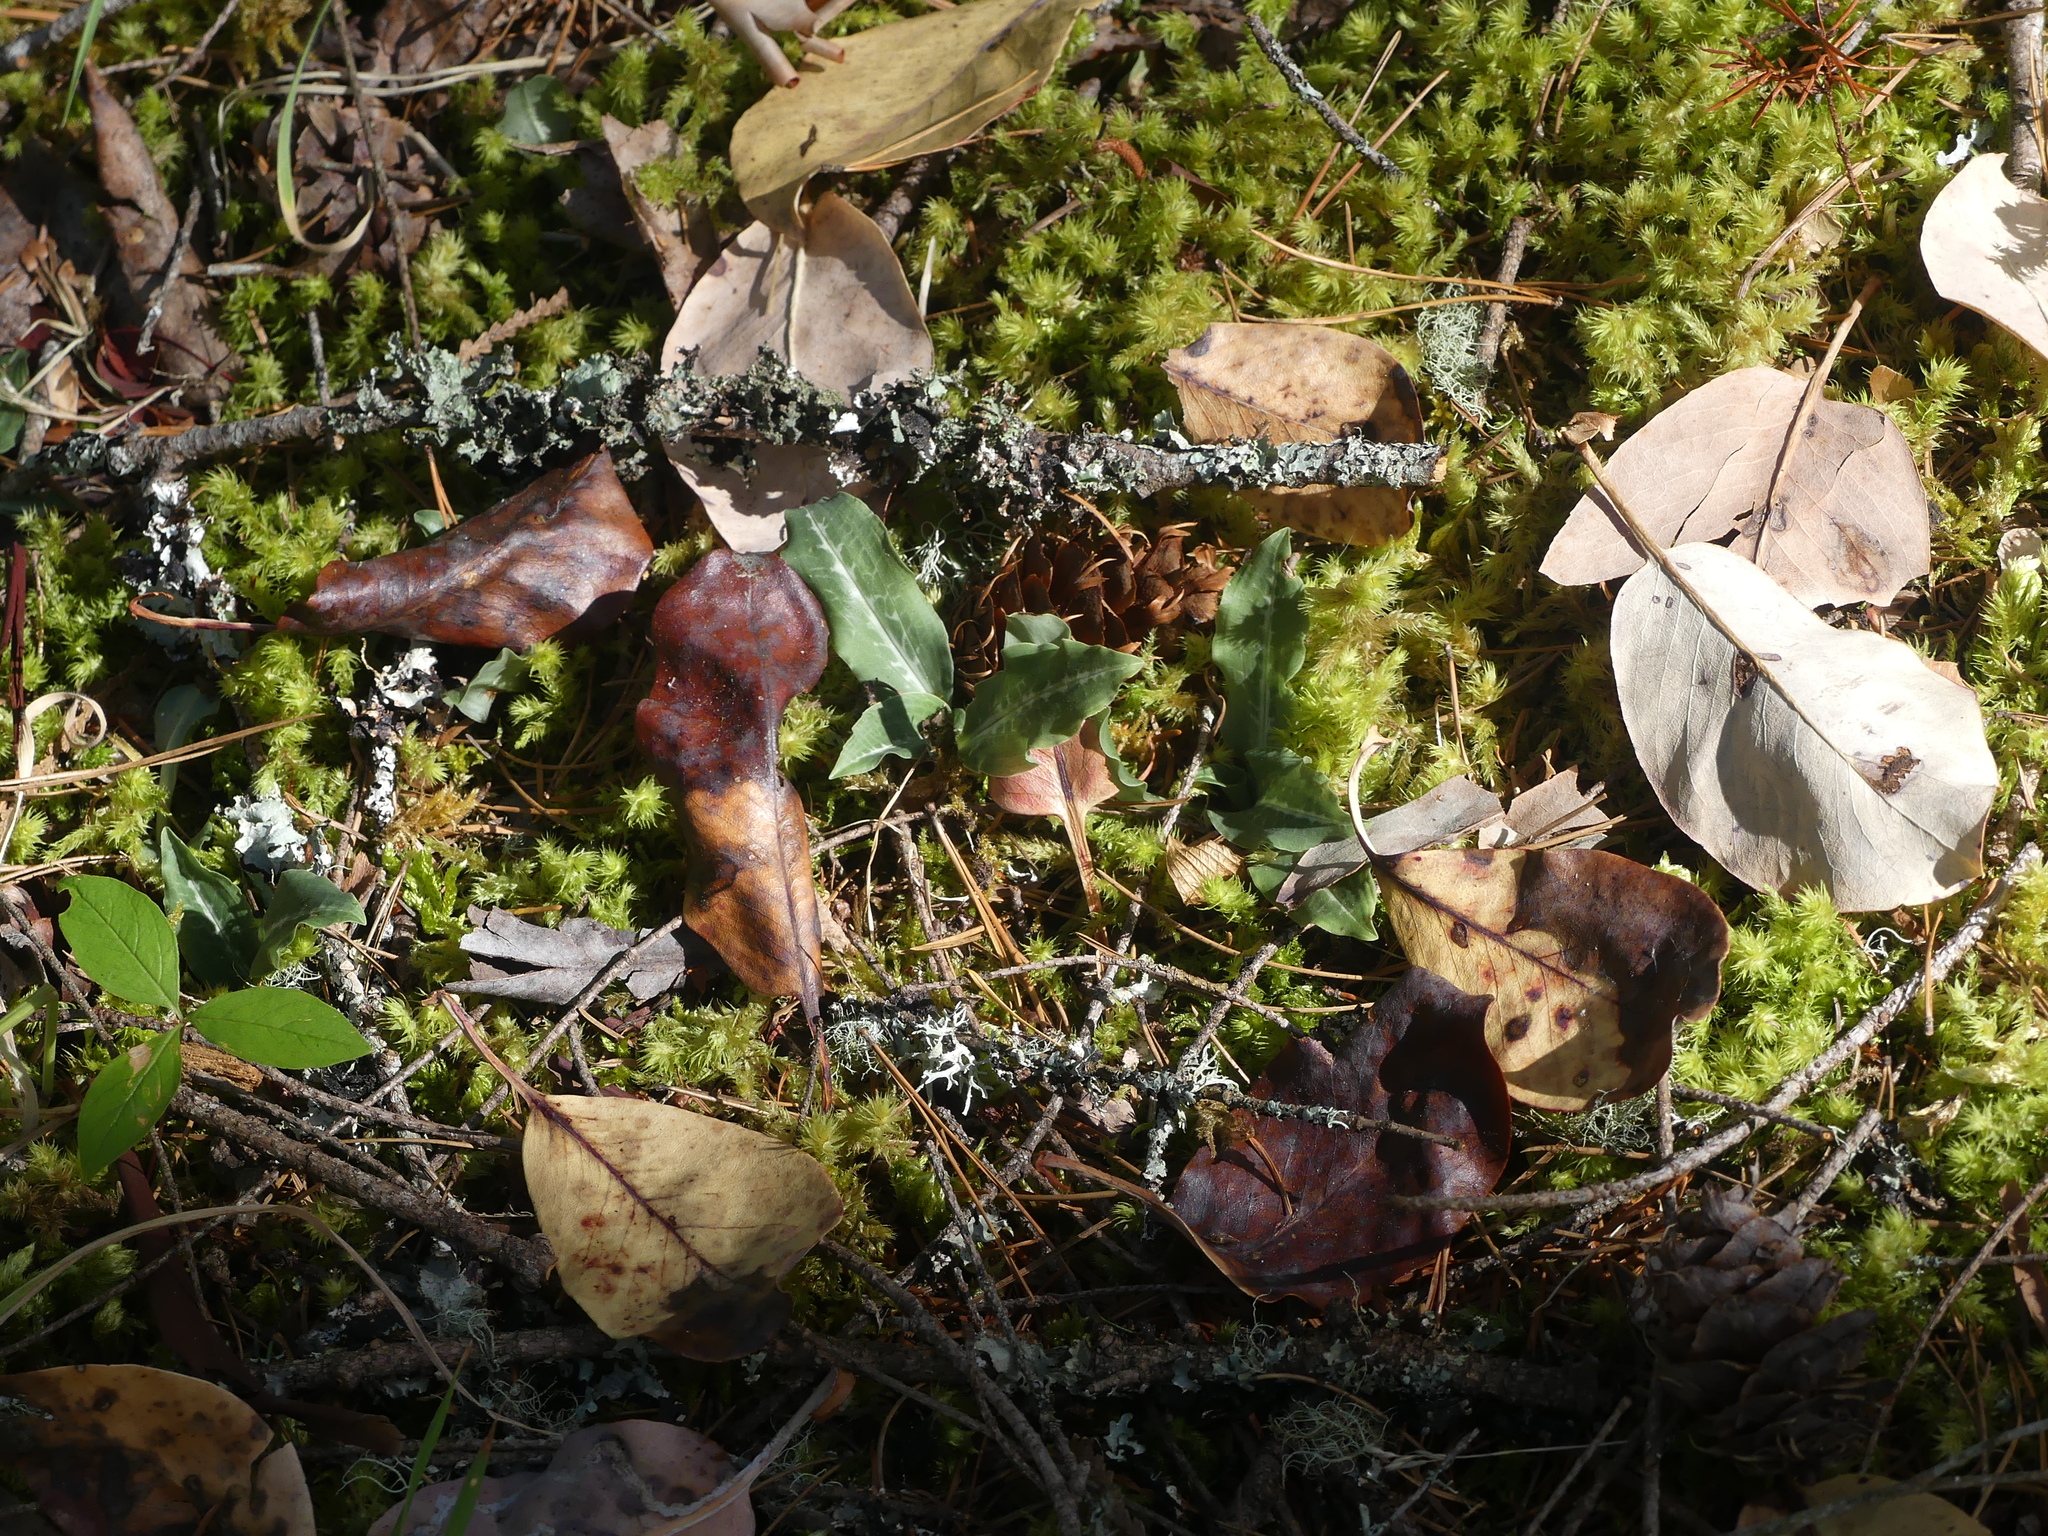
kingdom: Plantae
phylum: Tracheophyta
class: Liliopsida
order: Asparagales
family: Orchidaceae
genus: Goodyera
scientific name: Goodyera oblongifolia
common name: Giant rattlesnake-plantain
